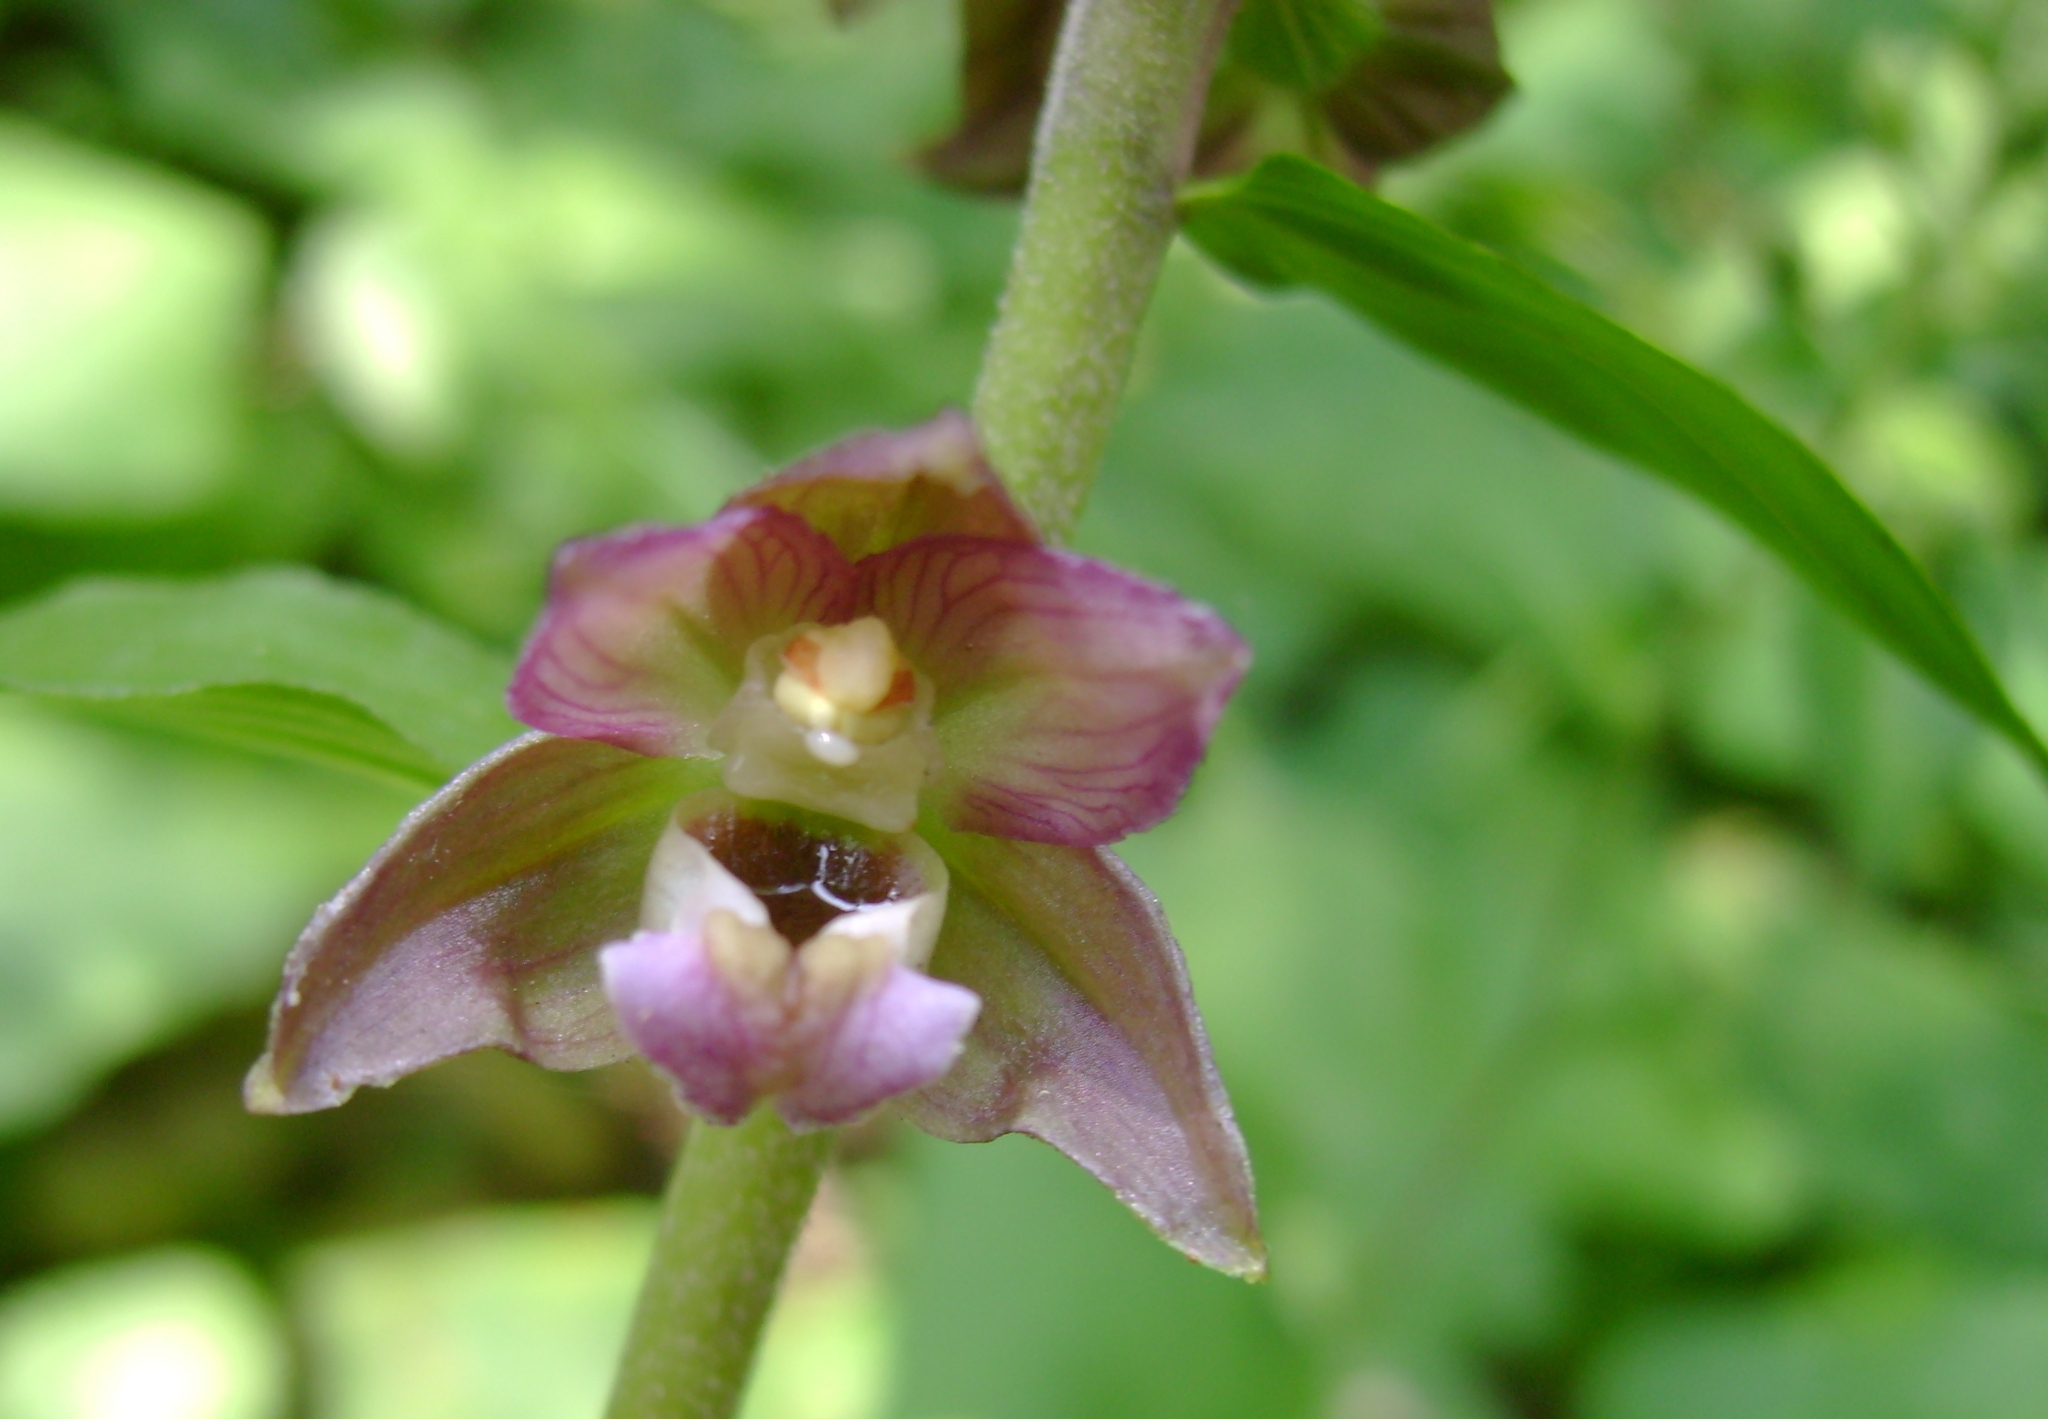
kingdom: Plantae
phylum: Tracheophyta
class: Liliopsida
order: Asparagales
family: Orchidaceae
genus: Epipactis
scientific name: Epipactis helleborine
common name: Broad-leaved helleborine
